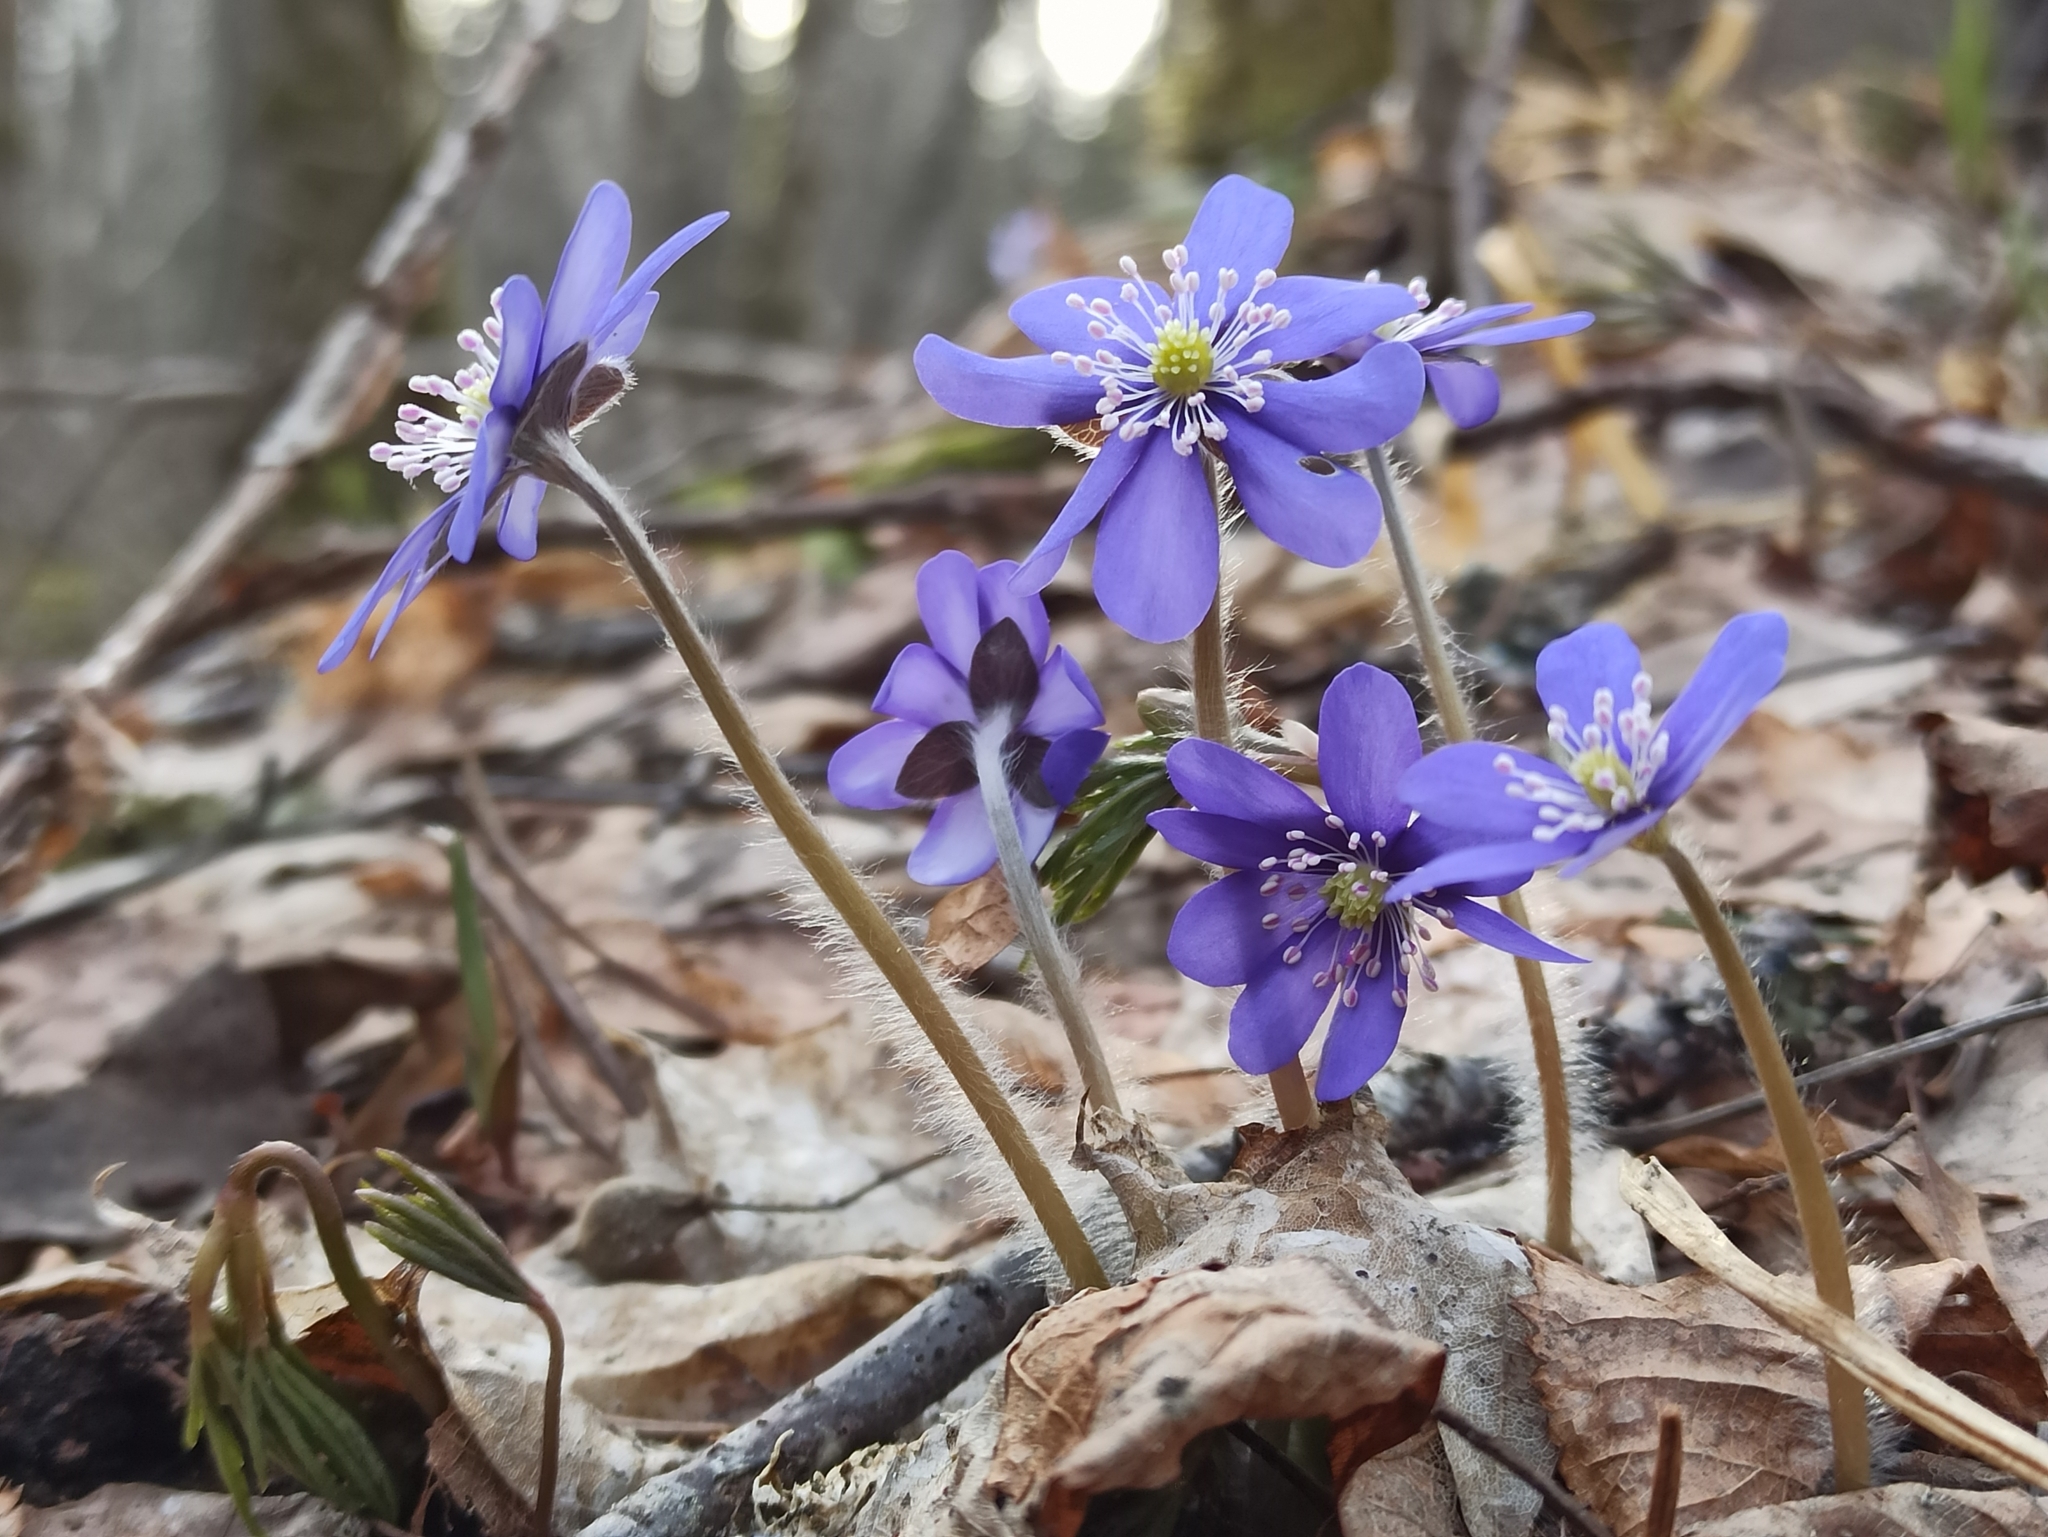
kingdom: Plantae
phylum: Tracheophyta
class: Magnoliopsida
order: Ranunculales
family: Ranunculaceae
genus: Hepatica
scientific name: Hepatica nobilis
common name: Liverleaf
